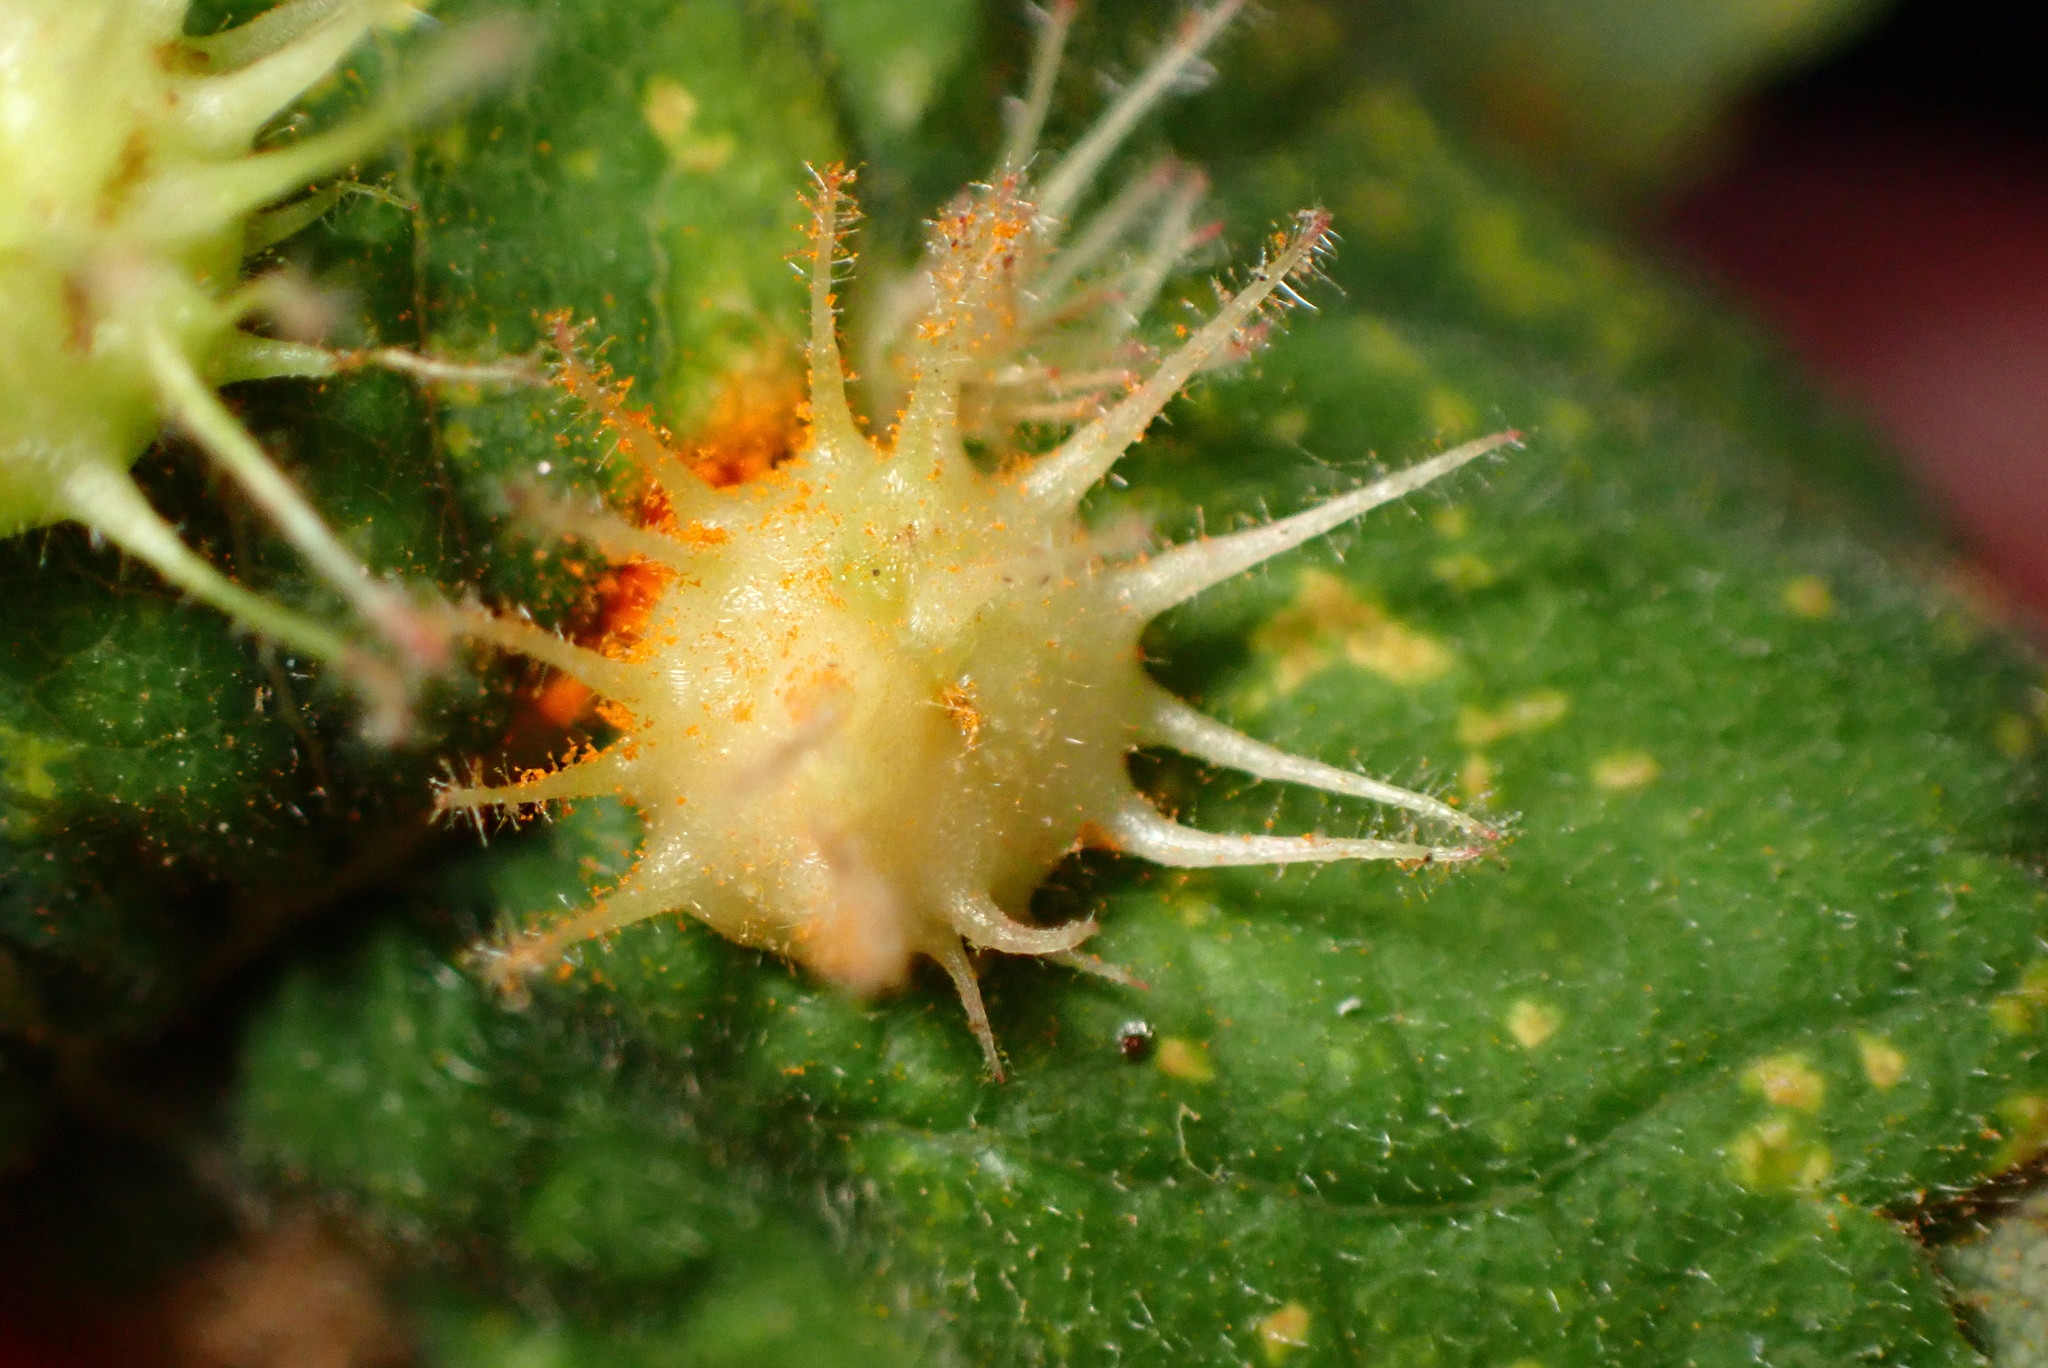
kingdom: Animalia
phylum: Arthropoda
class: Insecta
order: Hymenoptera
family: Cynipidae
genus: Diplolepis
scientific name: Diplolepis
